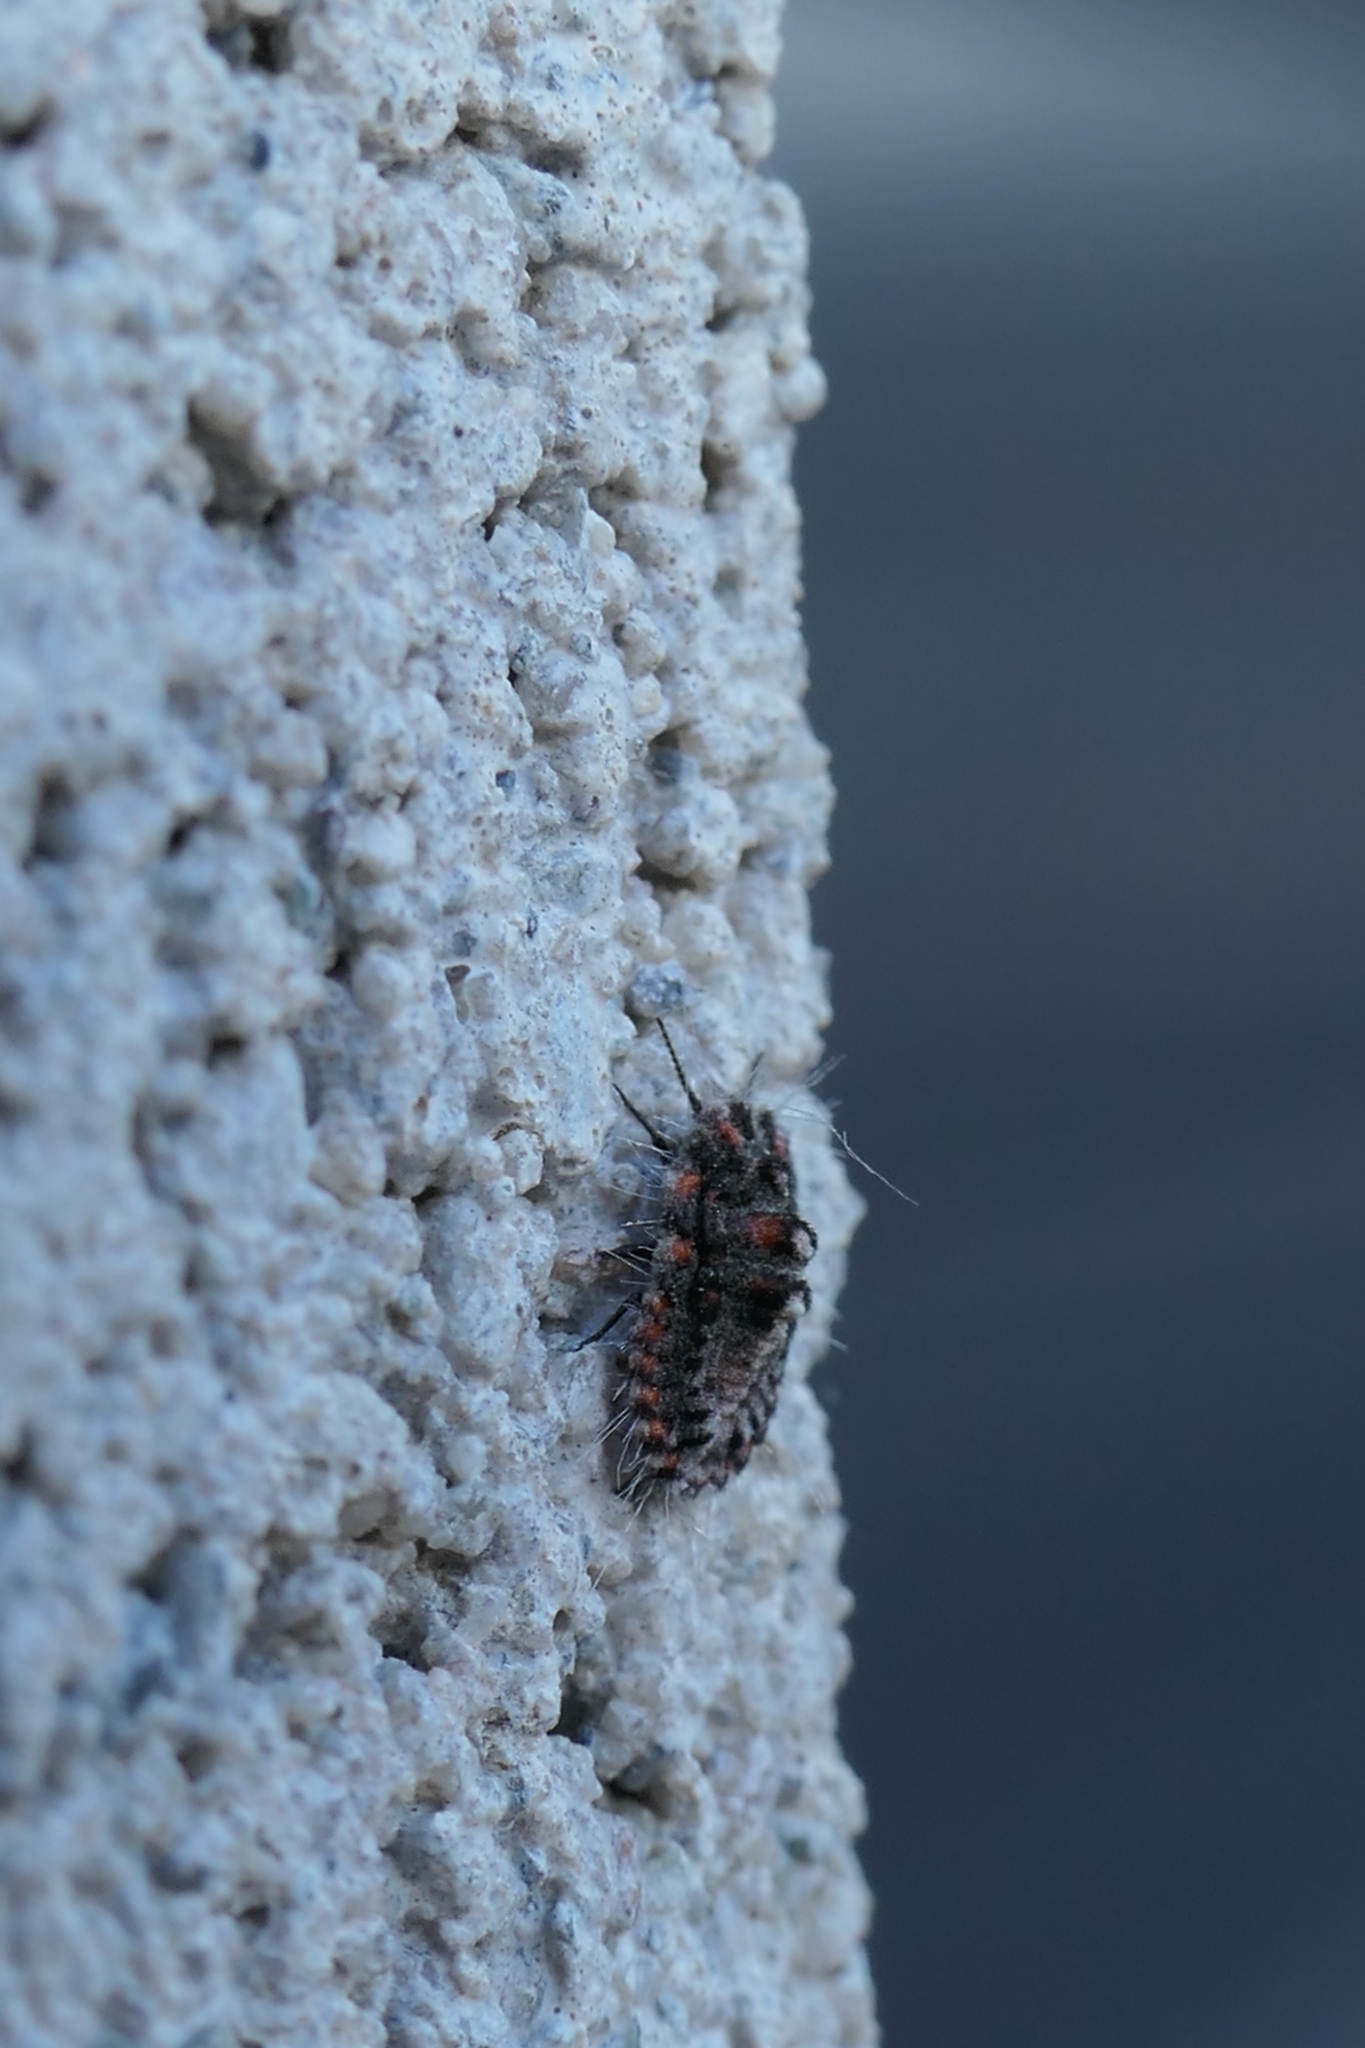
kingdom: Animalia
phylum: Arthropoda
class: Insecta
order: Hemiptera
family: Margarodidae
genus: Icerya
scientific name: Icerya purchasi
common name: Cottony cushion scale
